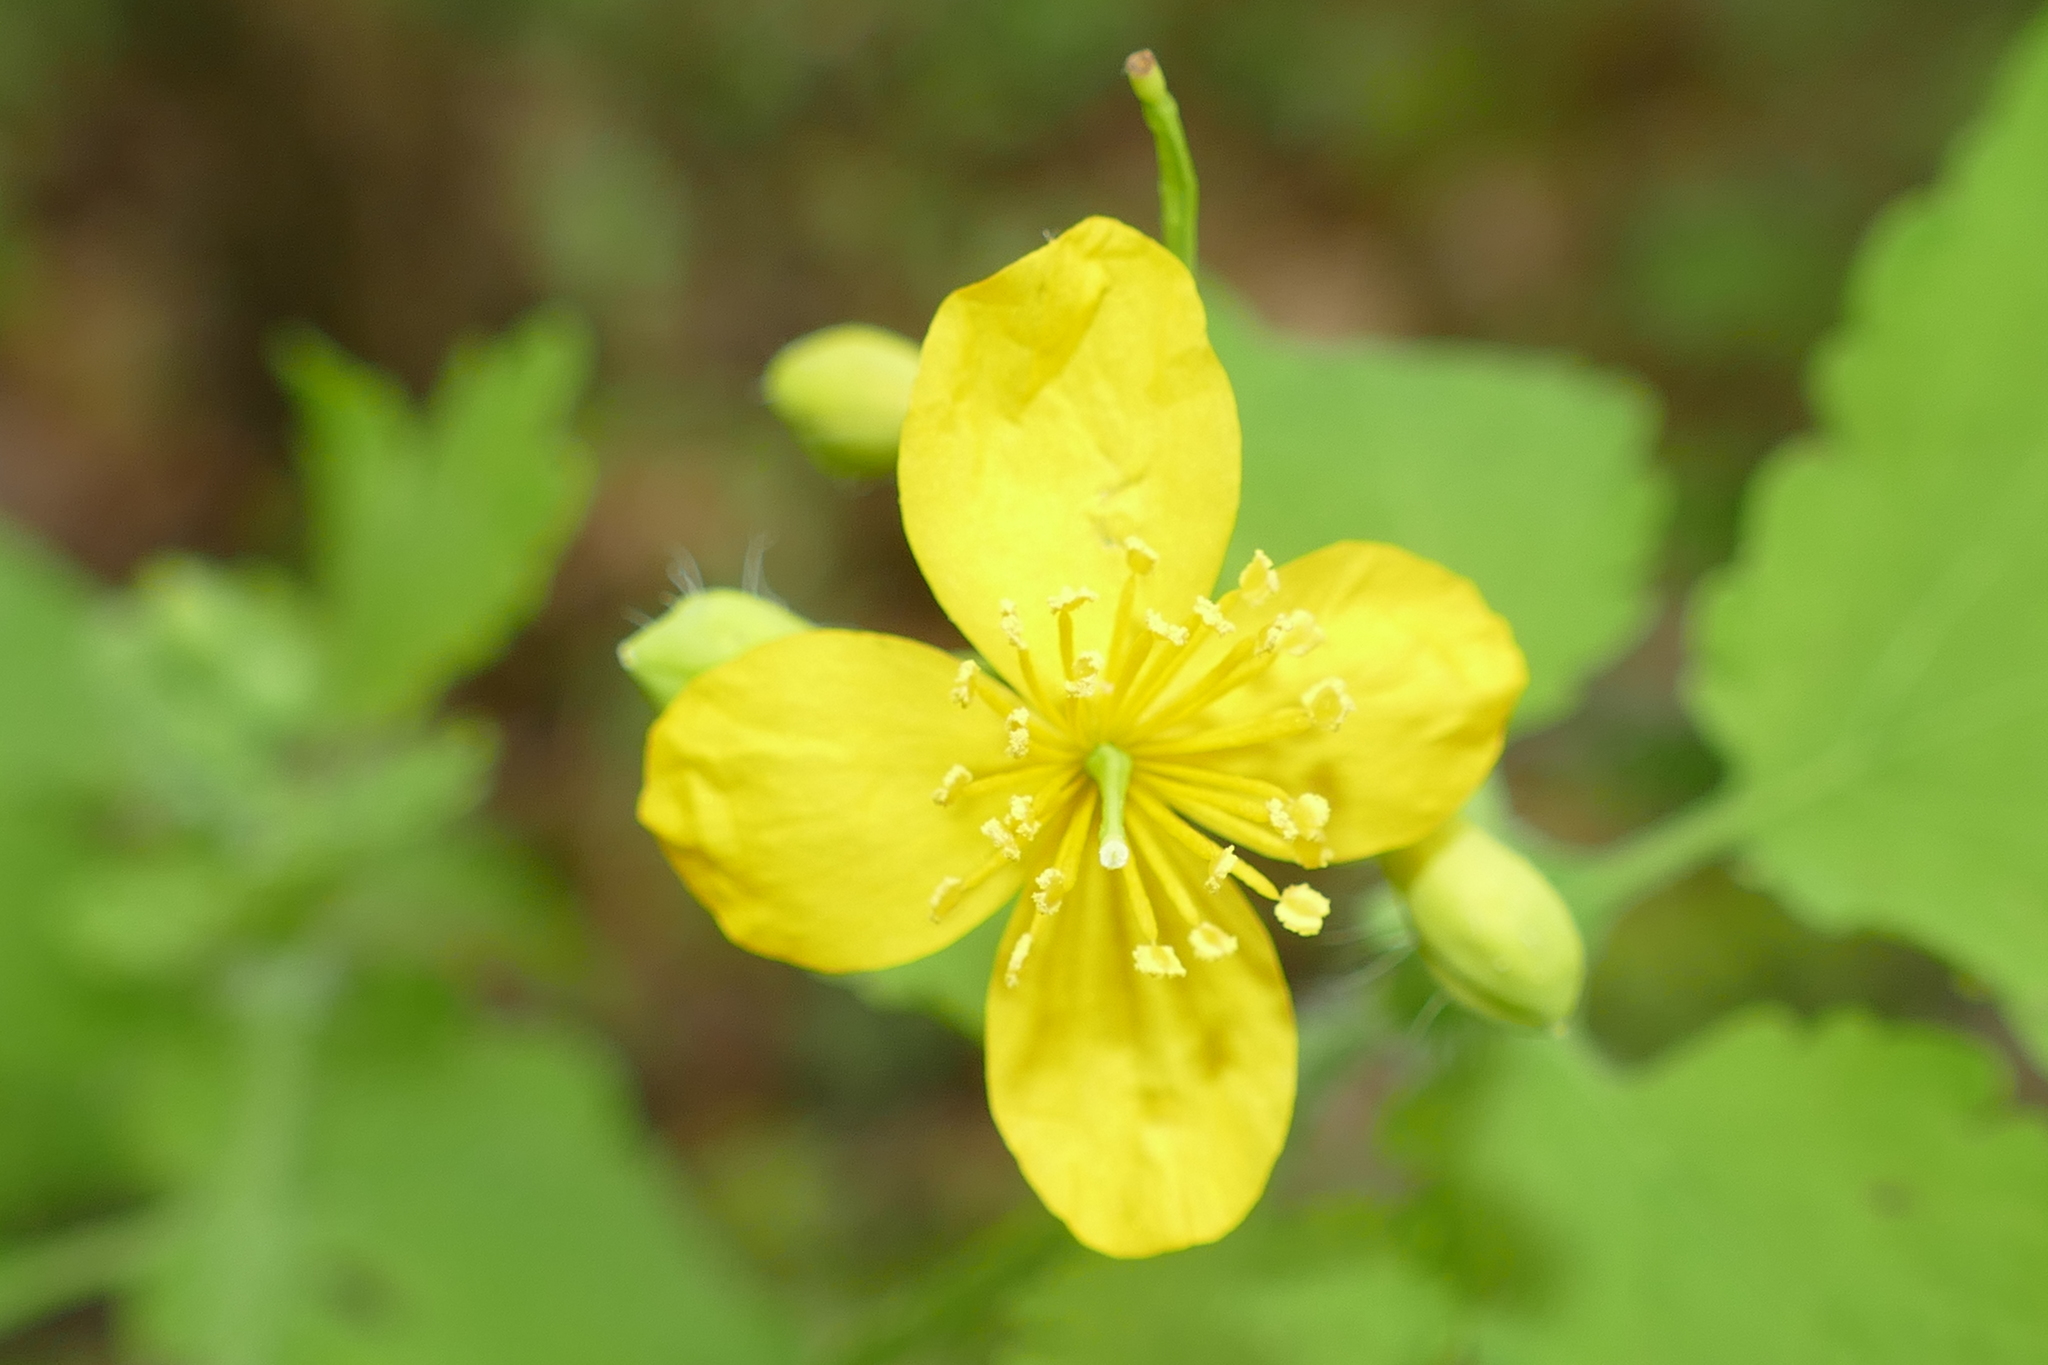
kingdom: Plantae
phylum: Tracheophyta
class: Magnoliopsida
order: Ranunculales
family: Papaveraceae
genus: Chelidonium
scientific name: Chelidonium majus
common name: Greater celandine
